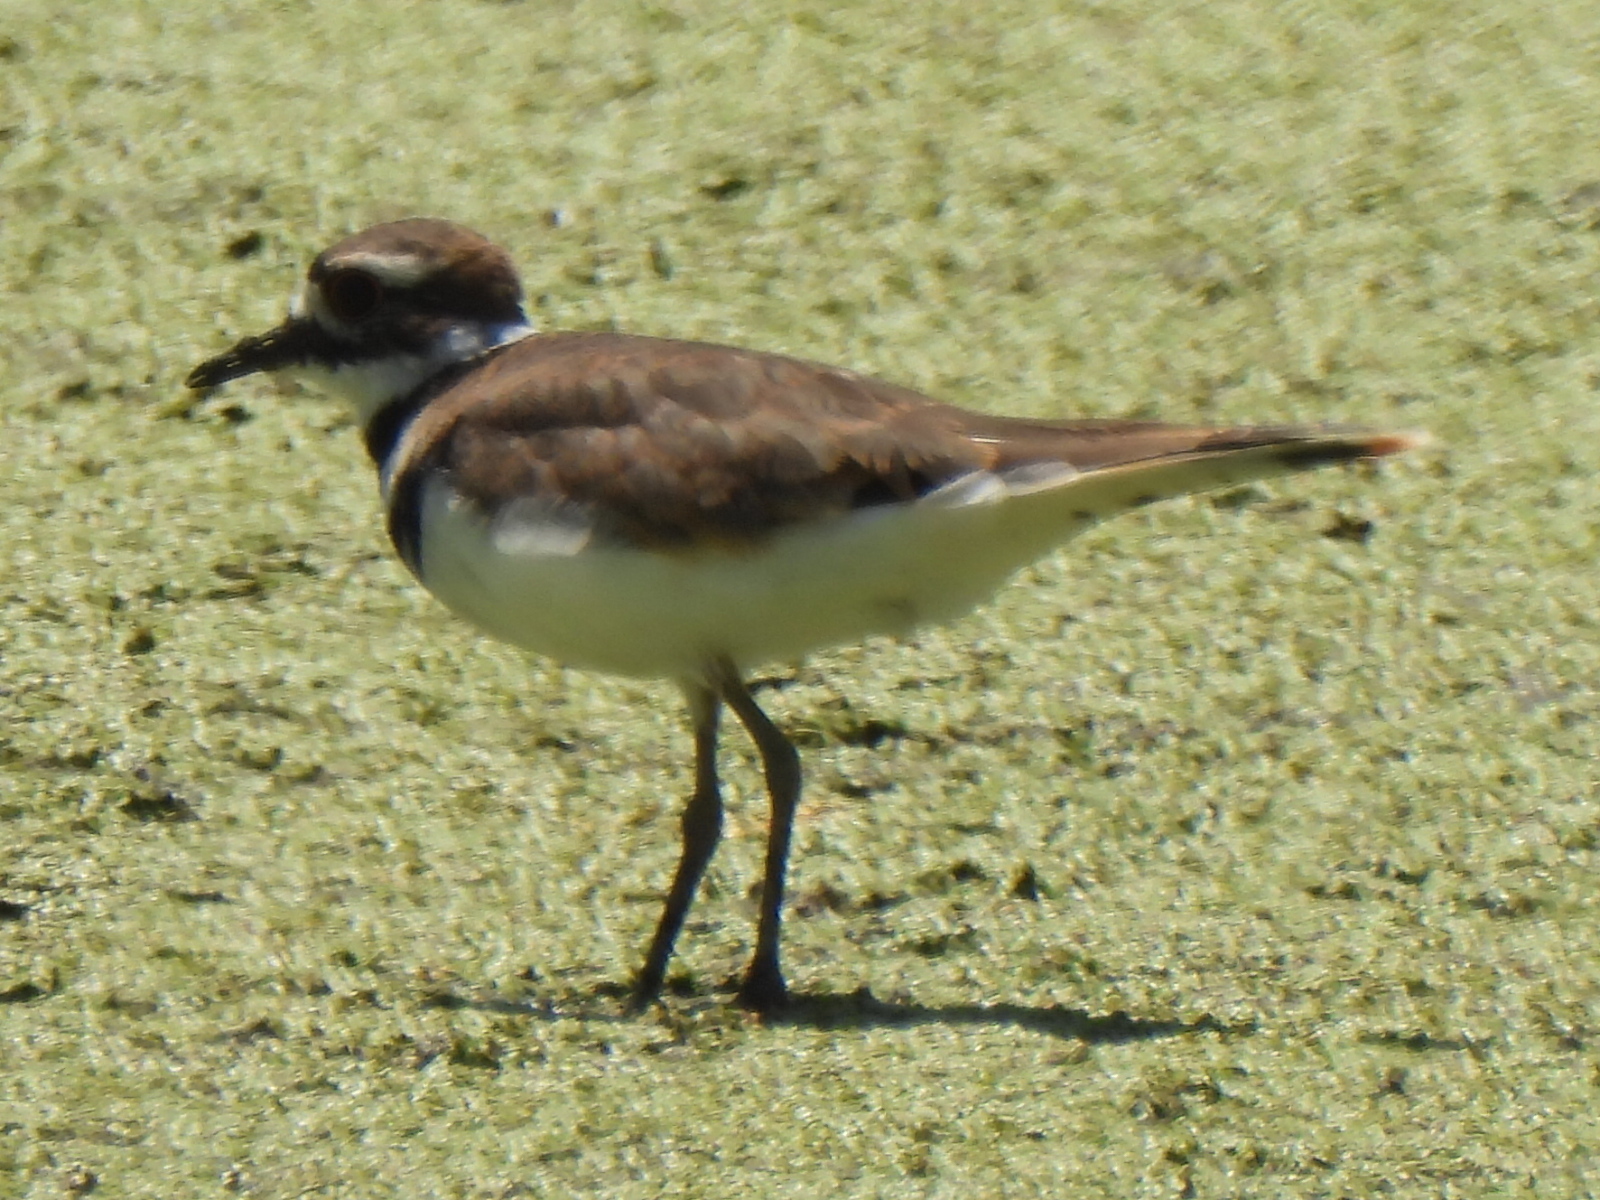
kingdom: Animalia
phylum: Chordata
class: Aves
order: Charadriiformes
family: Charadriidae
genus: Charadrius
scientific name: Charadrius vociferus
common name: Killdeer
